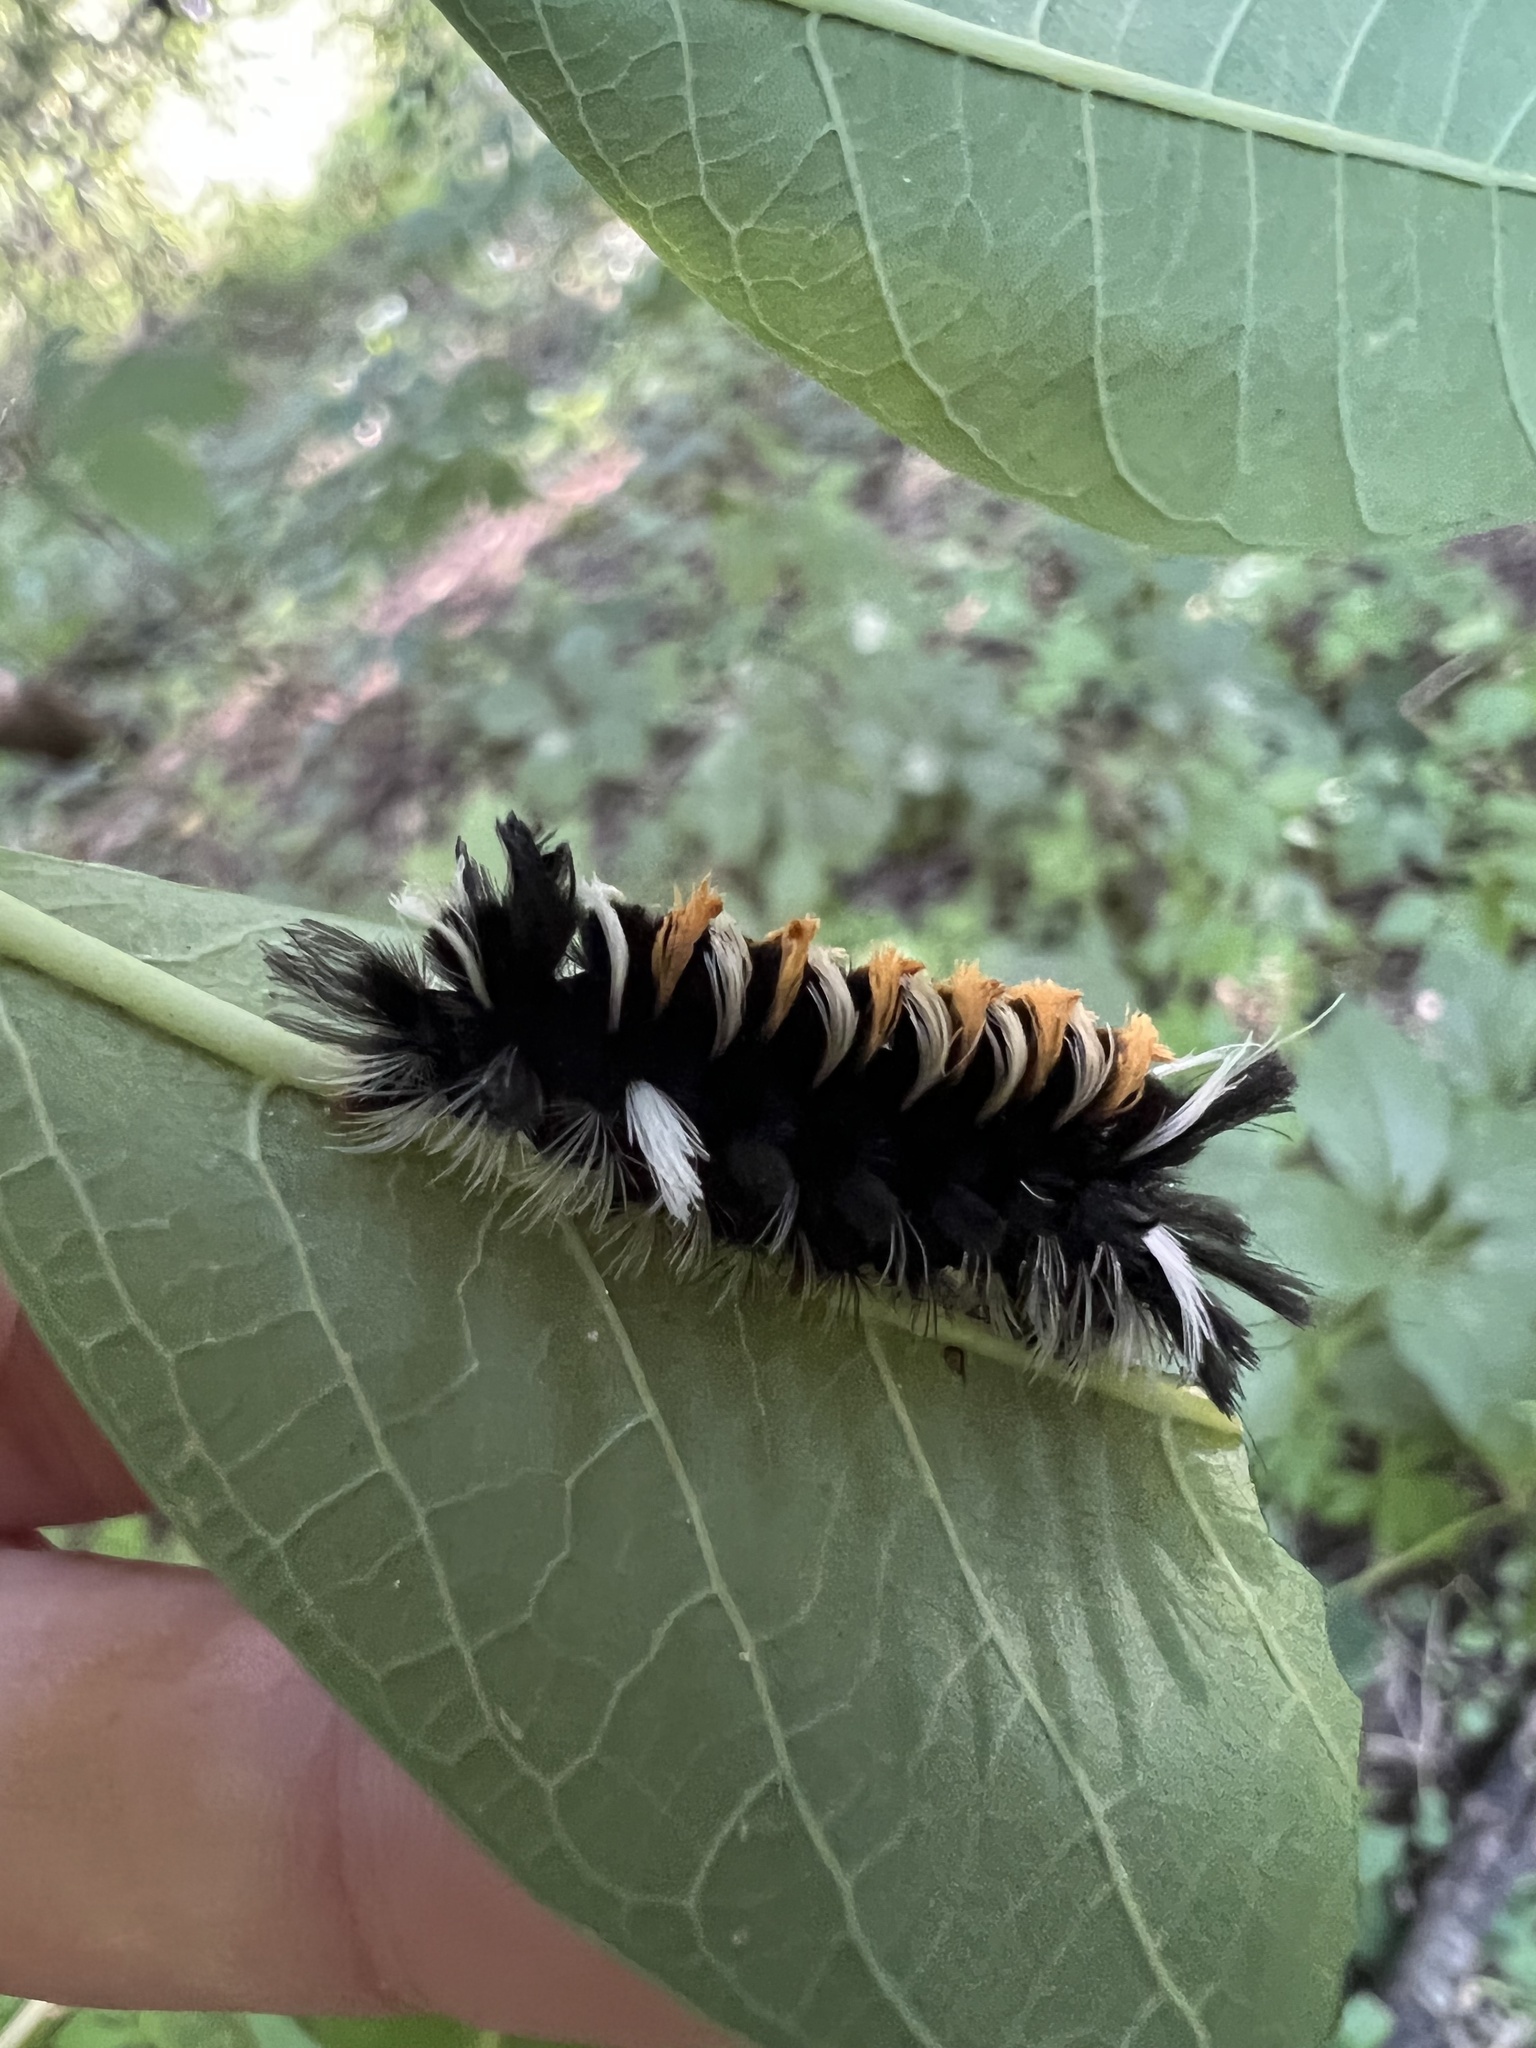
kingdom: Animalia
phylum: Arthropoda
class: Insecta
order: Lepidoptera
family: Erebidae
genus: Euchaetes
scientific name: Euchaetes egle
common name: Milkweed tussock moth
